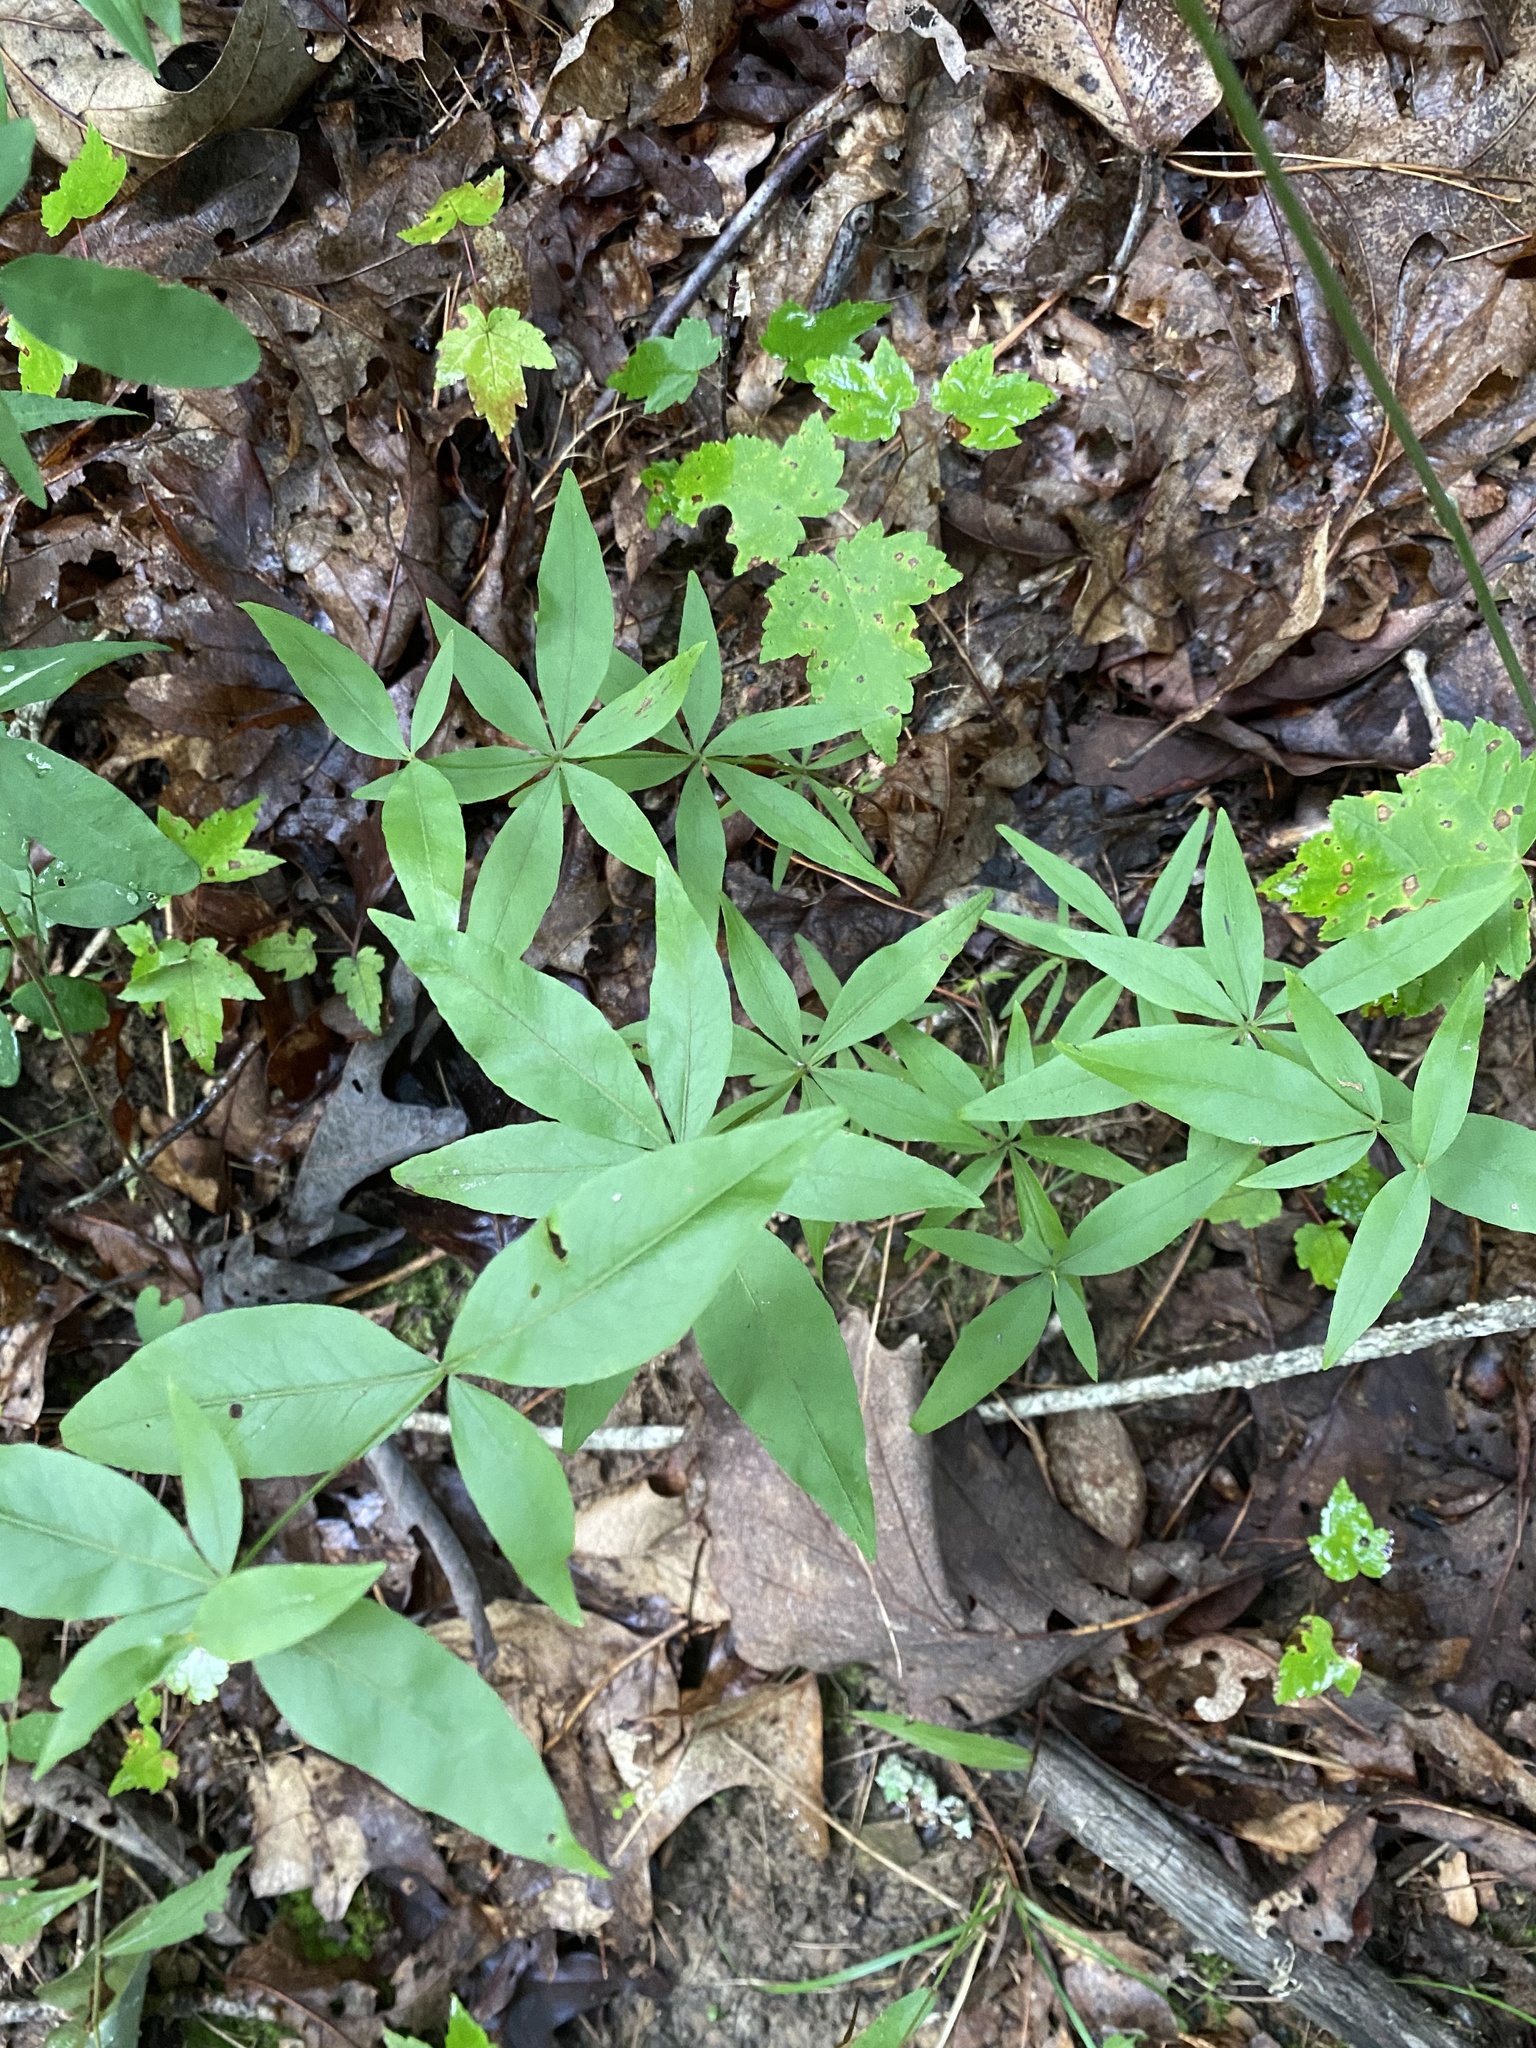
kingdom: Plantae
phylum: Tracheophyta
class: Magnoliopsida
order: Asterales
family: Asteraceae
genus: Coreopsis
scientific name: Coreopsis major
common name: Forest tickseed
